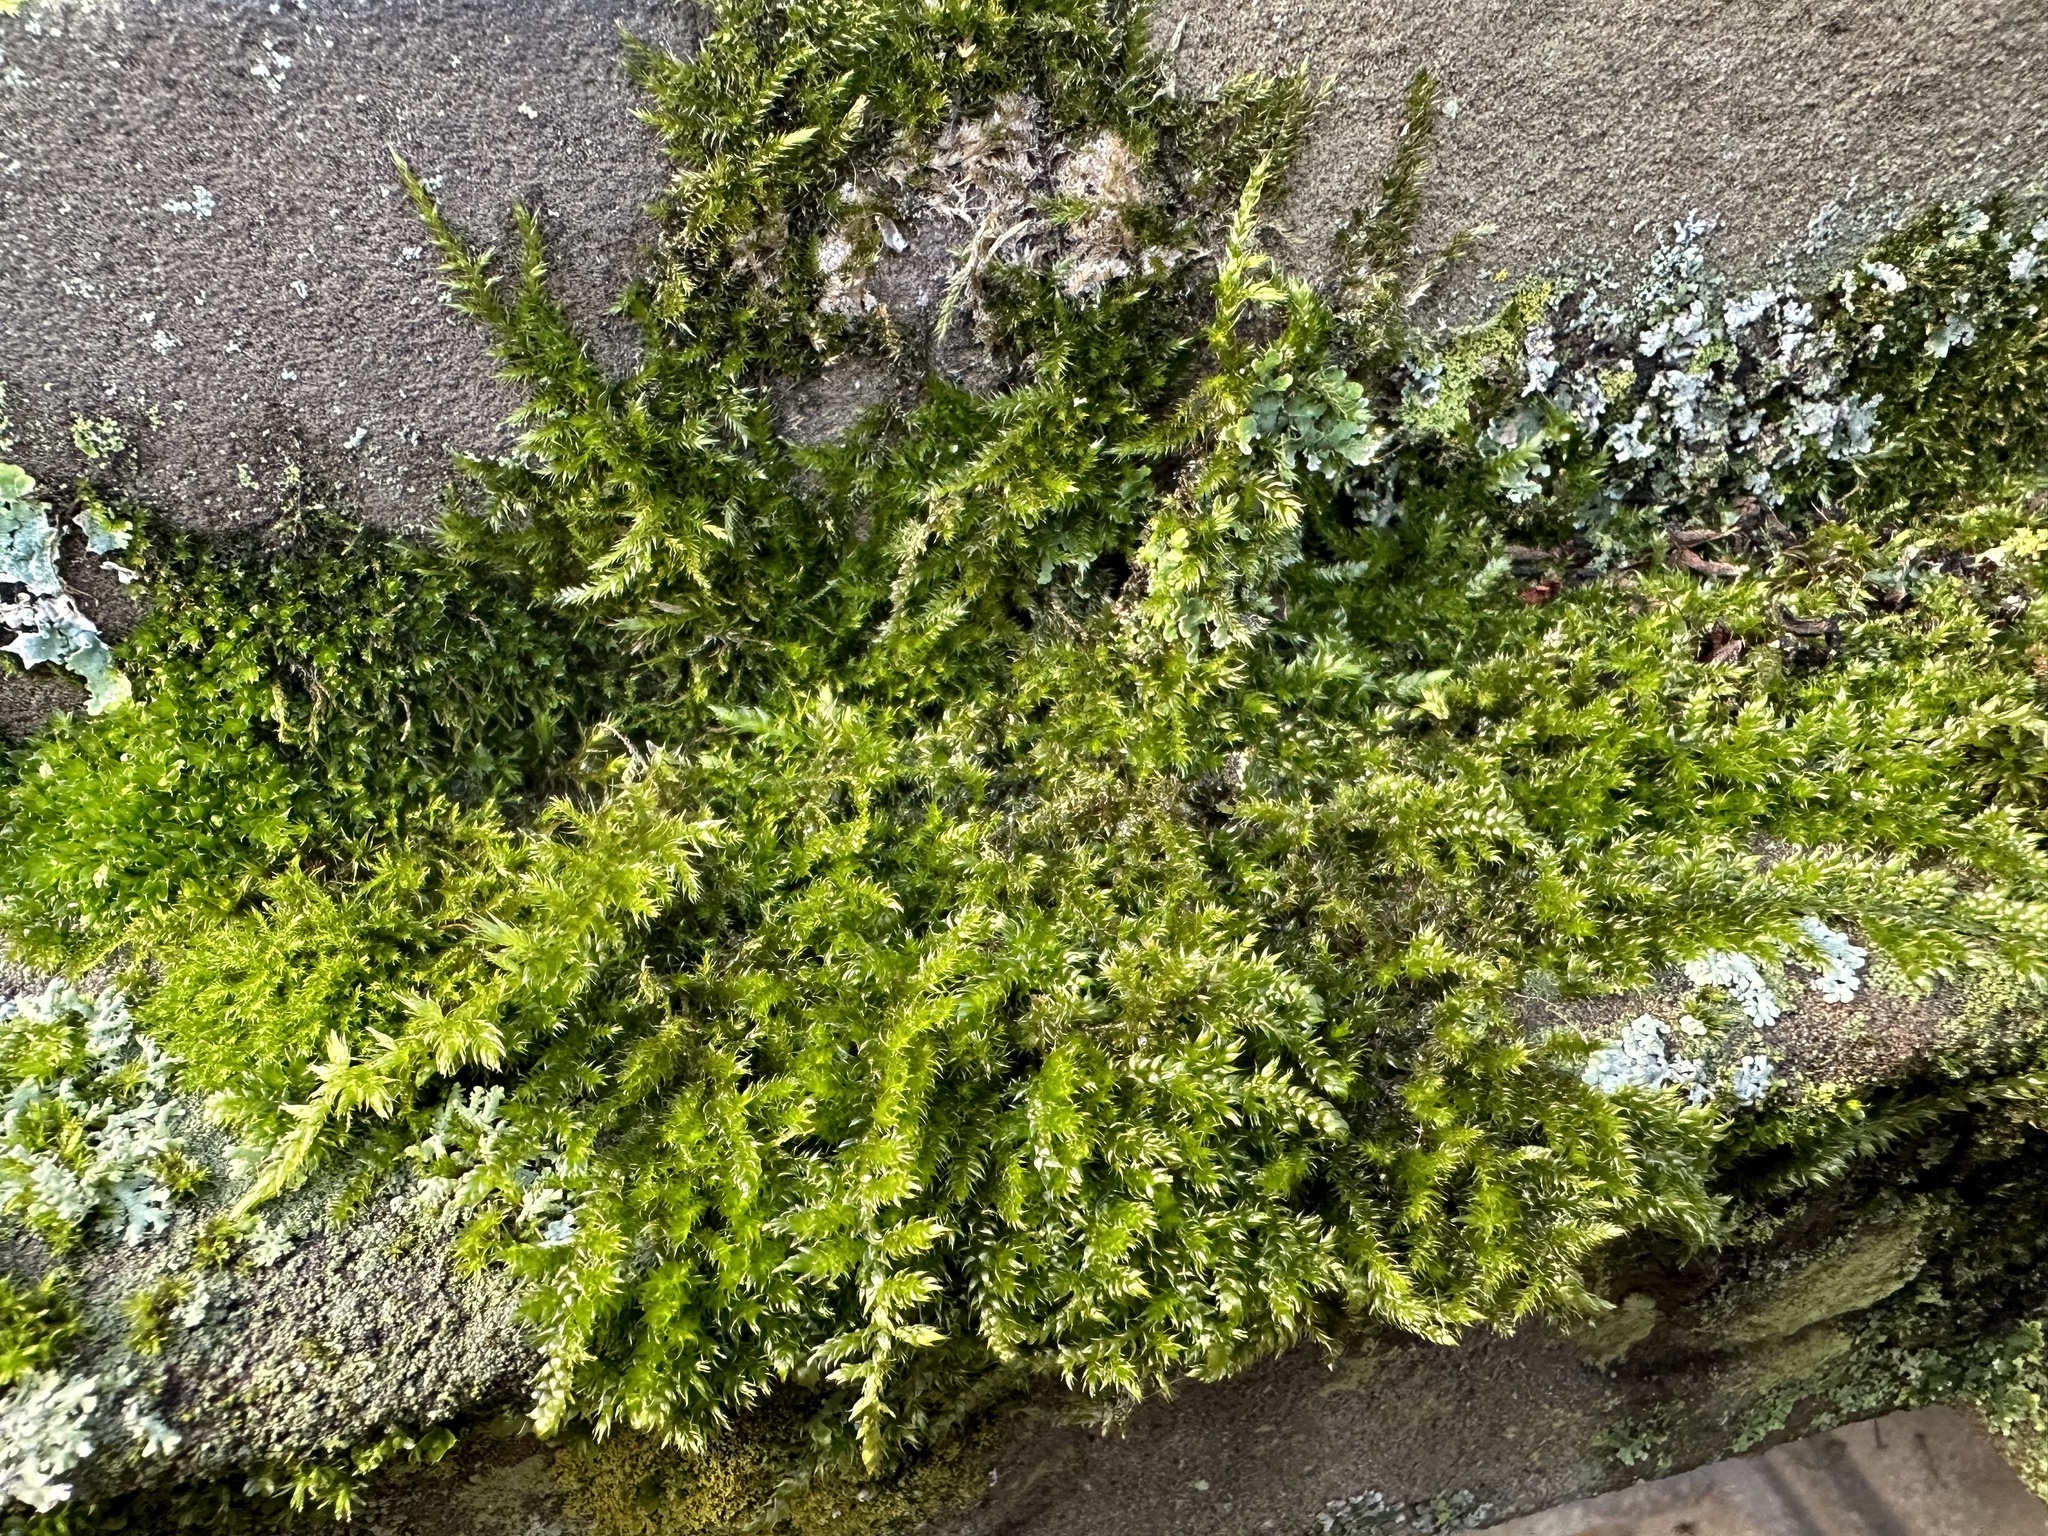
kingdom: Plantae
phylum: Bryophyta
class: Bryopsida
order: Hypnales
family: Brachytheciaceae
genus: Homalothecium
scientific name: Homalothecium sericeum
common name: Silky wall feather-moss
